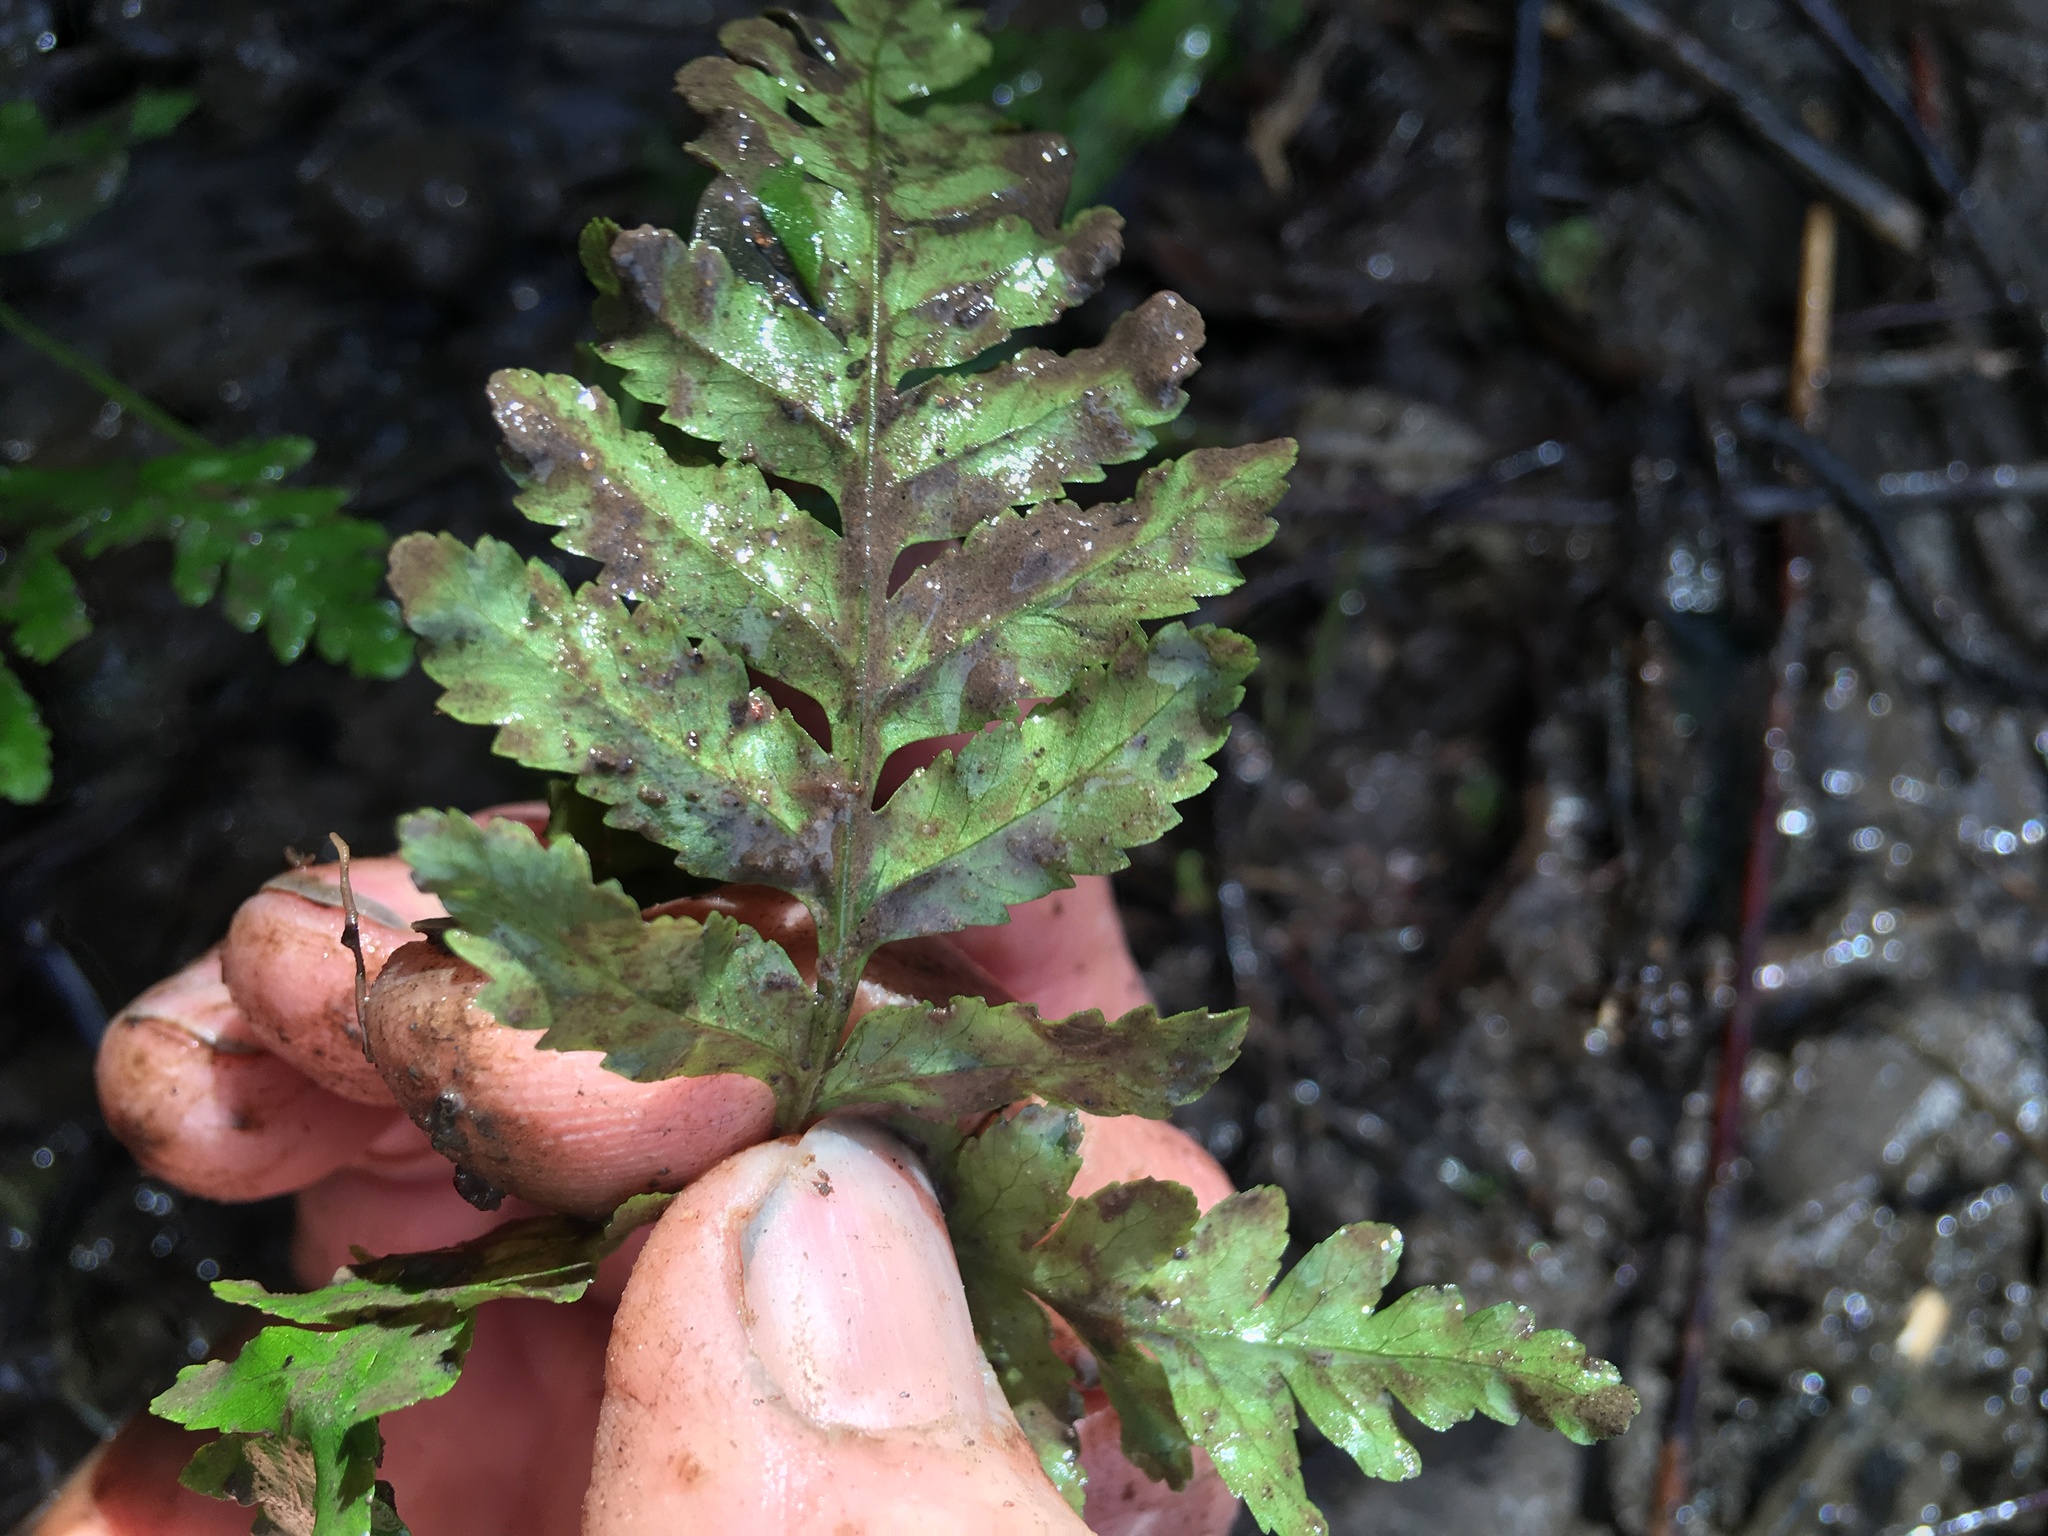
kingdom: Plantae
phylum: Tracheophyta
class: Polypodiopsida
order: Polypodiales
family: Pteridaceae
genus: Pteris
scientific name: Pteris tremula
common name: Australian brake
